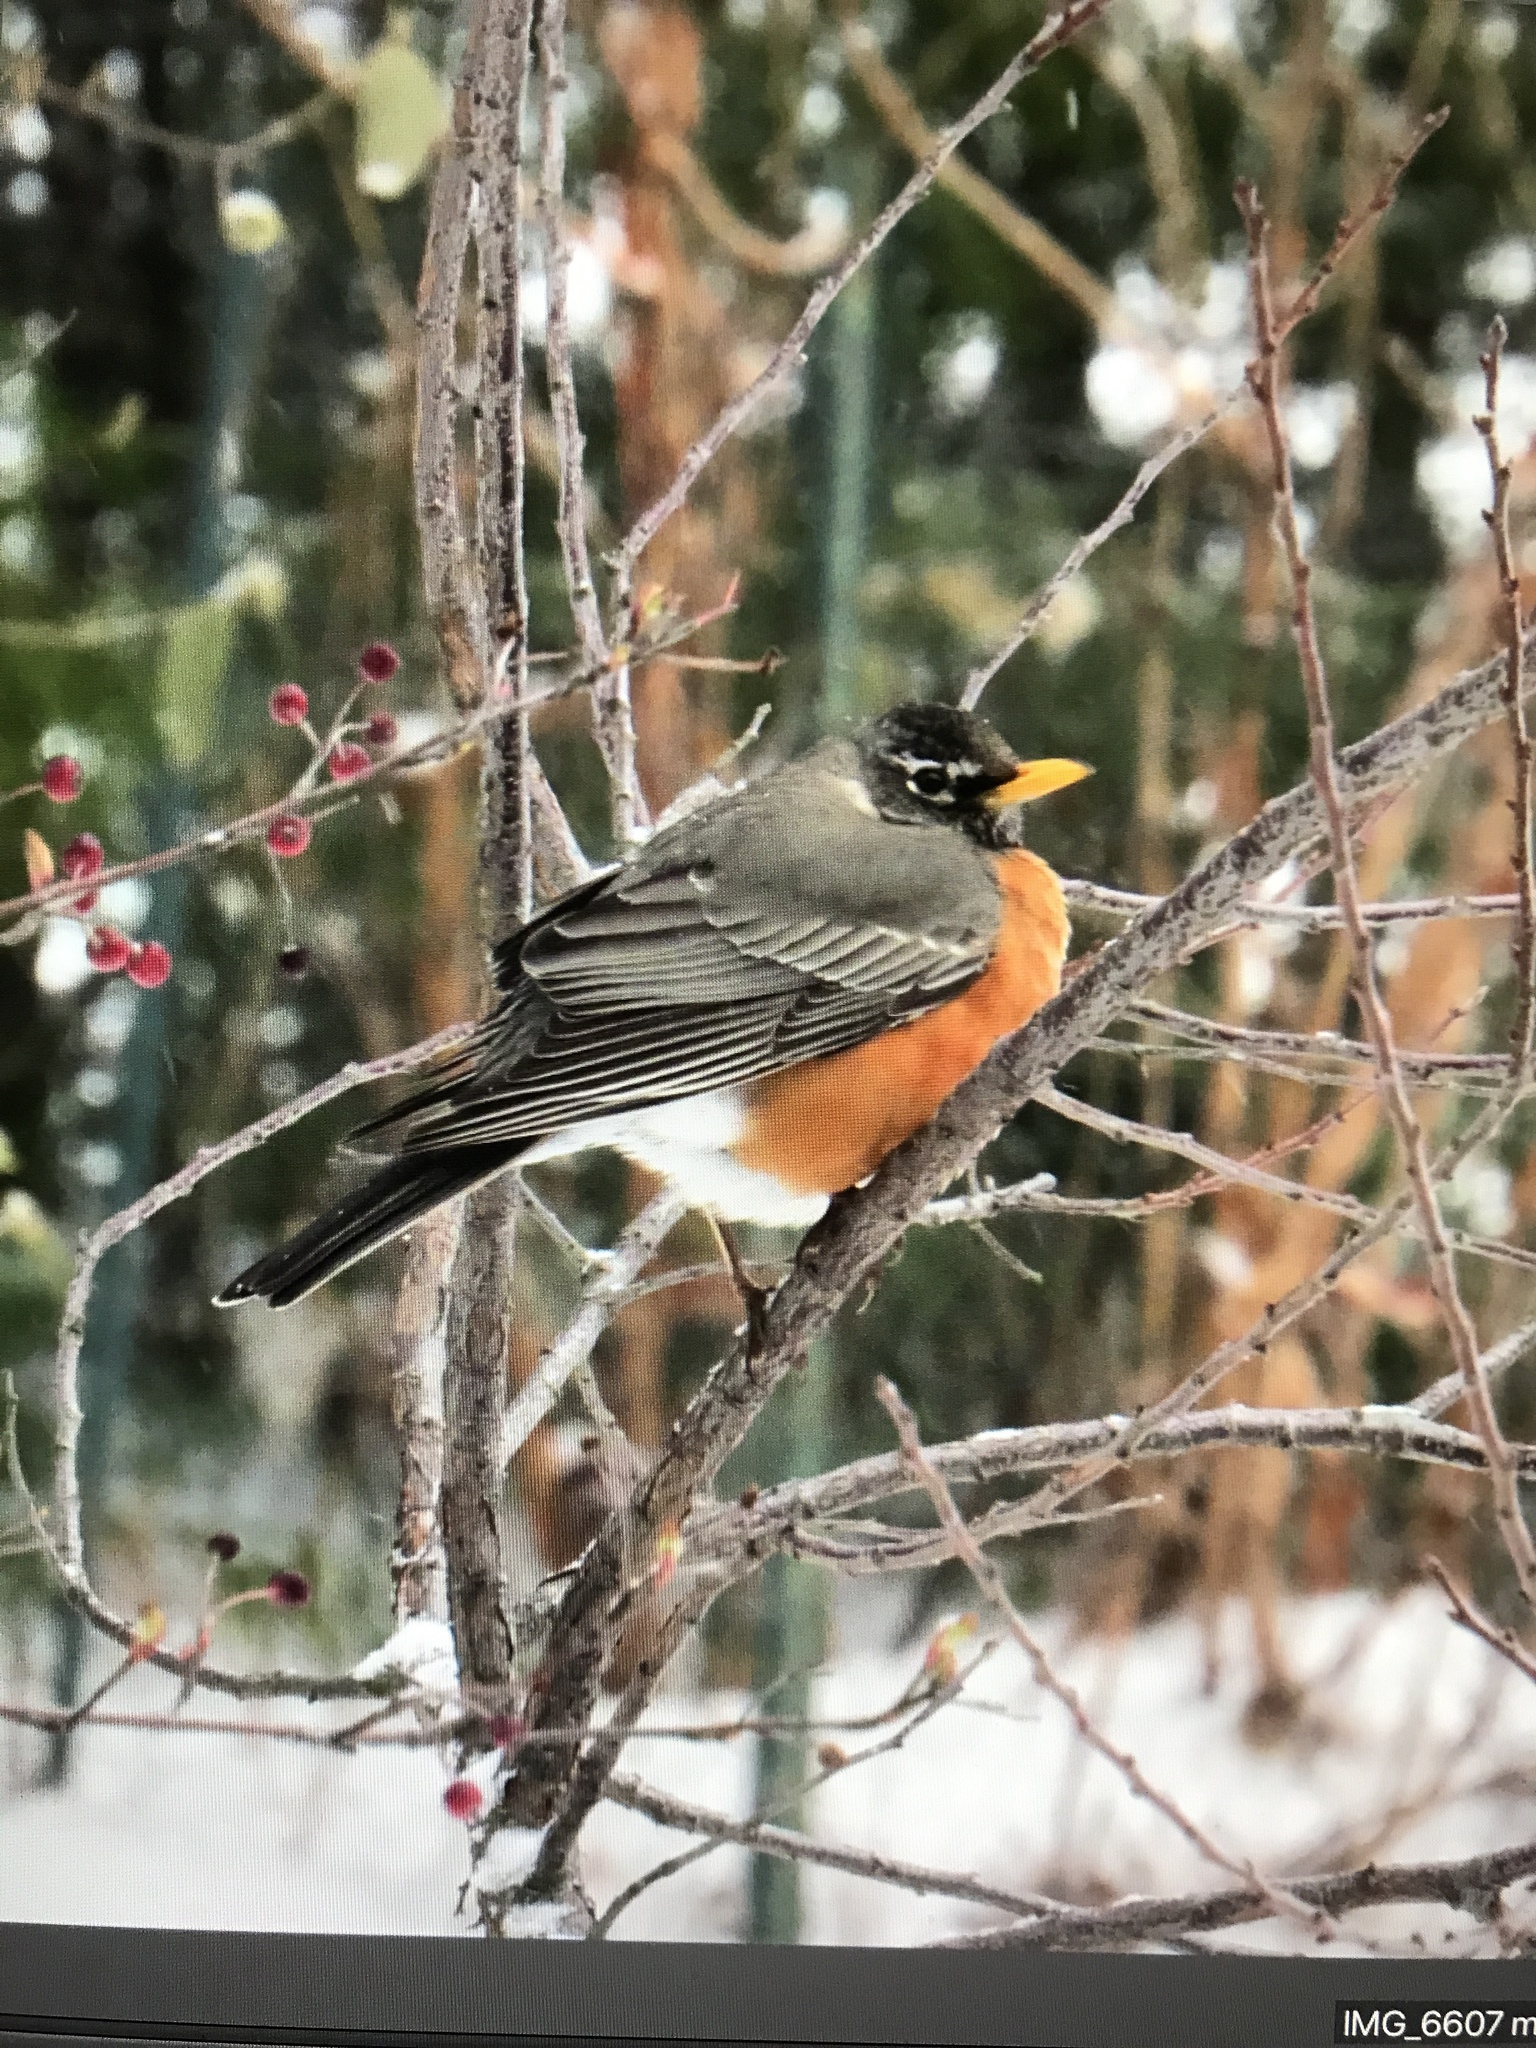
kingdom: Animalia
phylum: Chordata
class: Aves
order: Passeriformes
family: Turdidae
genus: Turdus
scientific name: Turdus migratorius
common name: American robin
